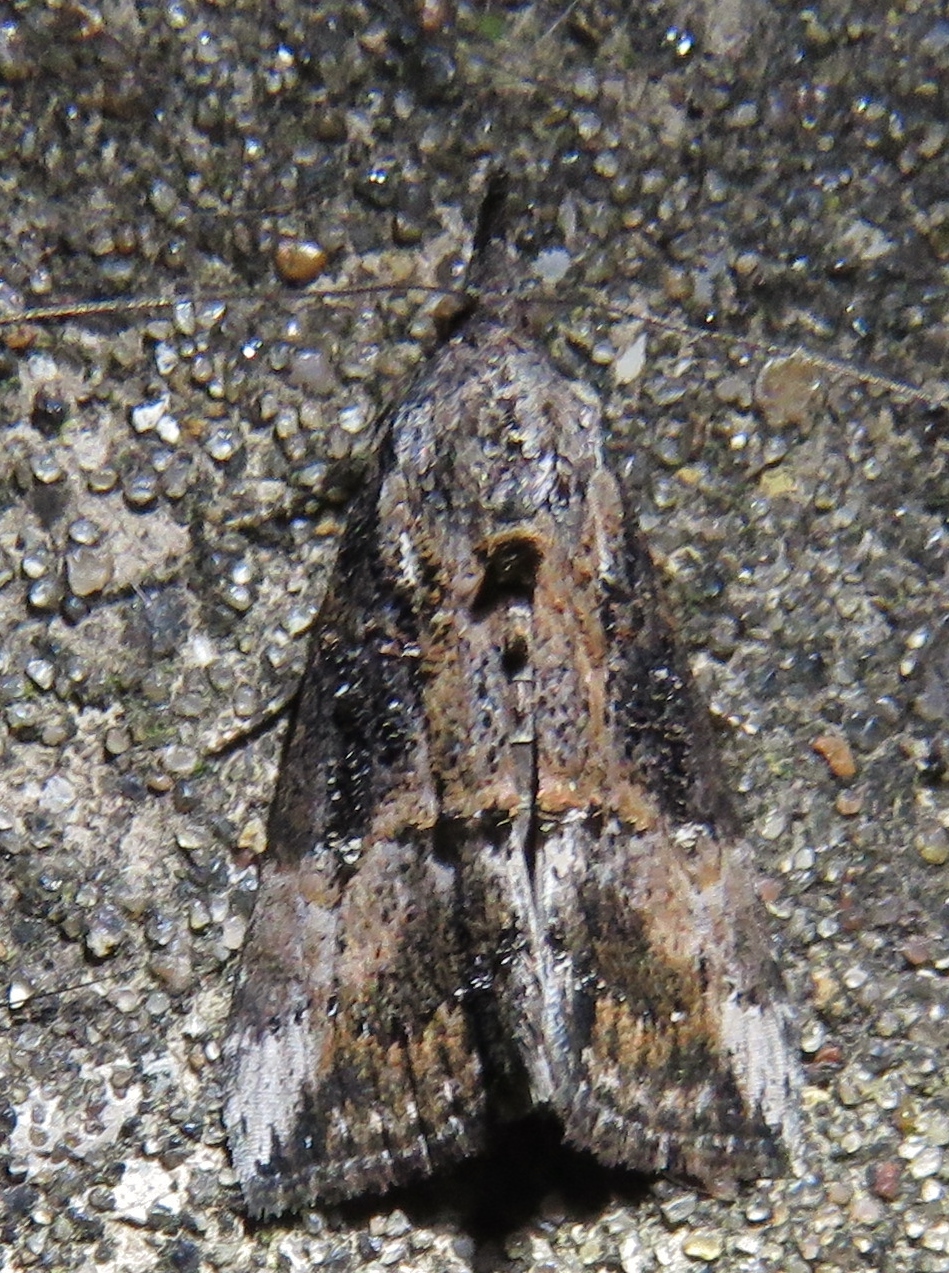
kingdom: Animalia
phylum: Arthropoda
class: Insecta
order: Lepidoptera
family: Erebidae
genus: Hypena
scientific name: Hypena scabra
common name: Green cloverworm
